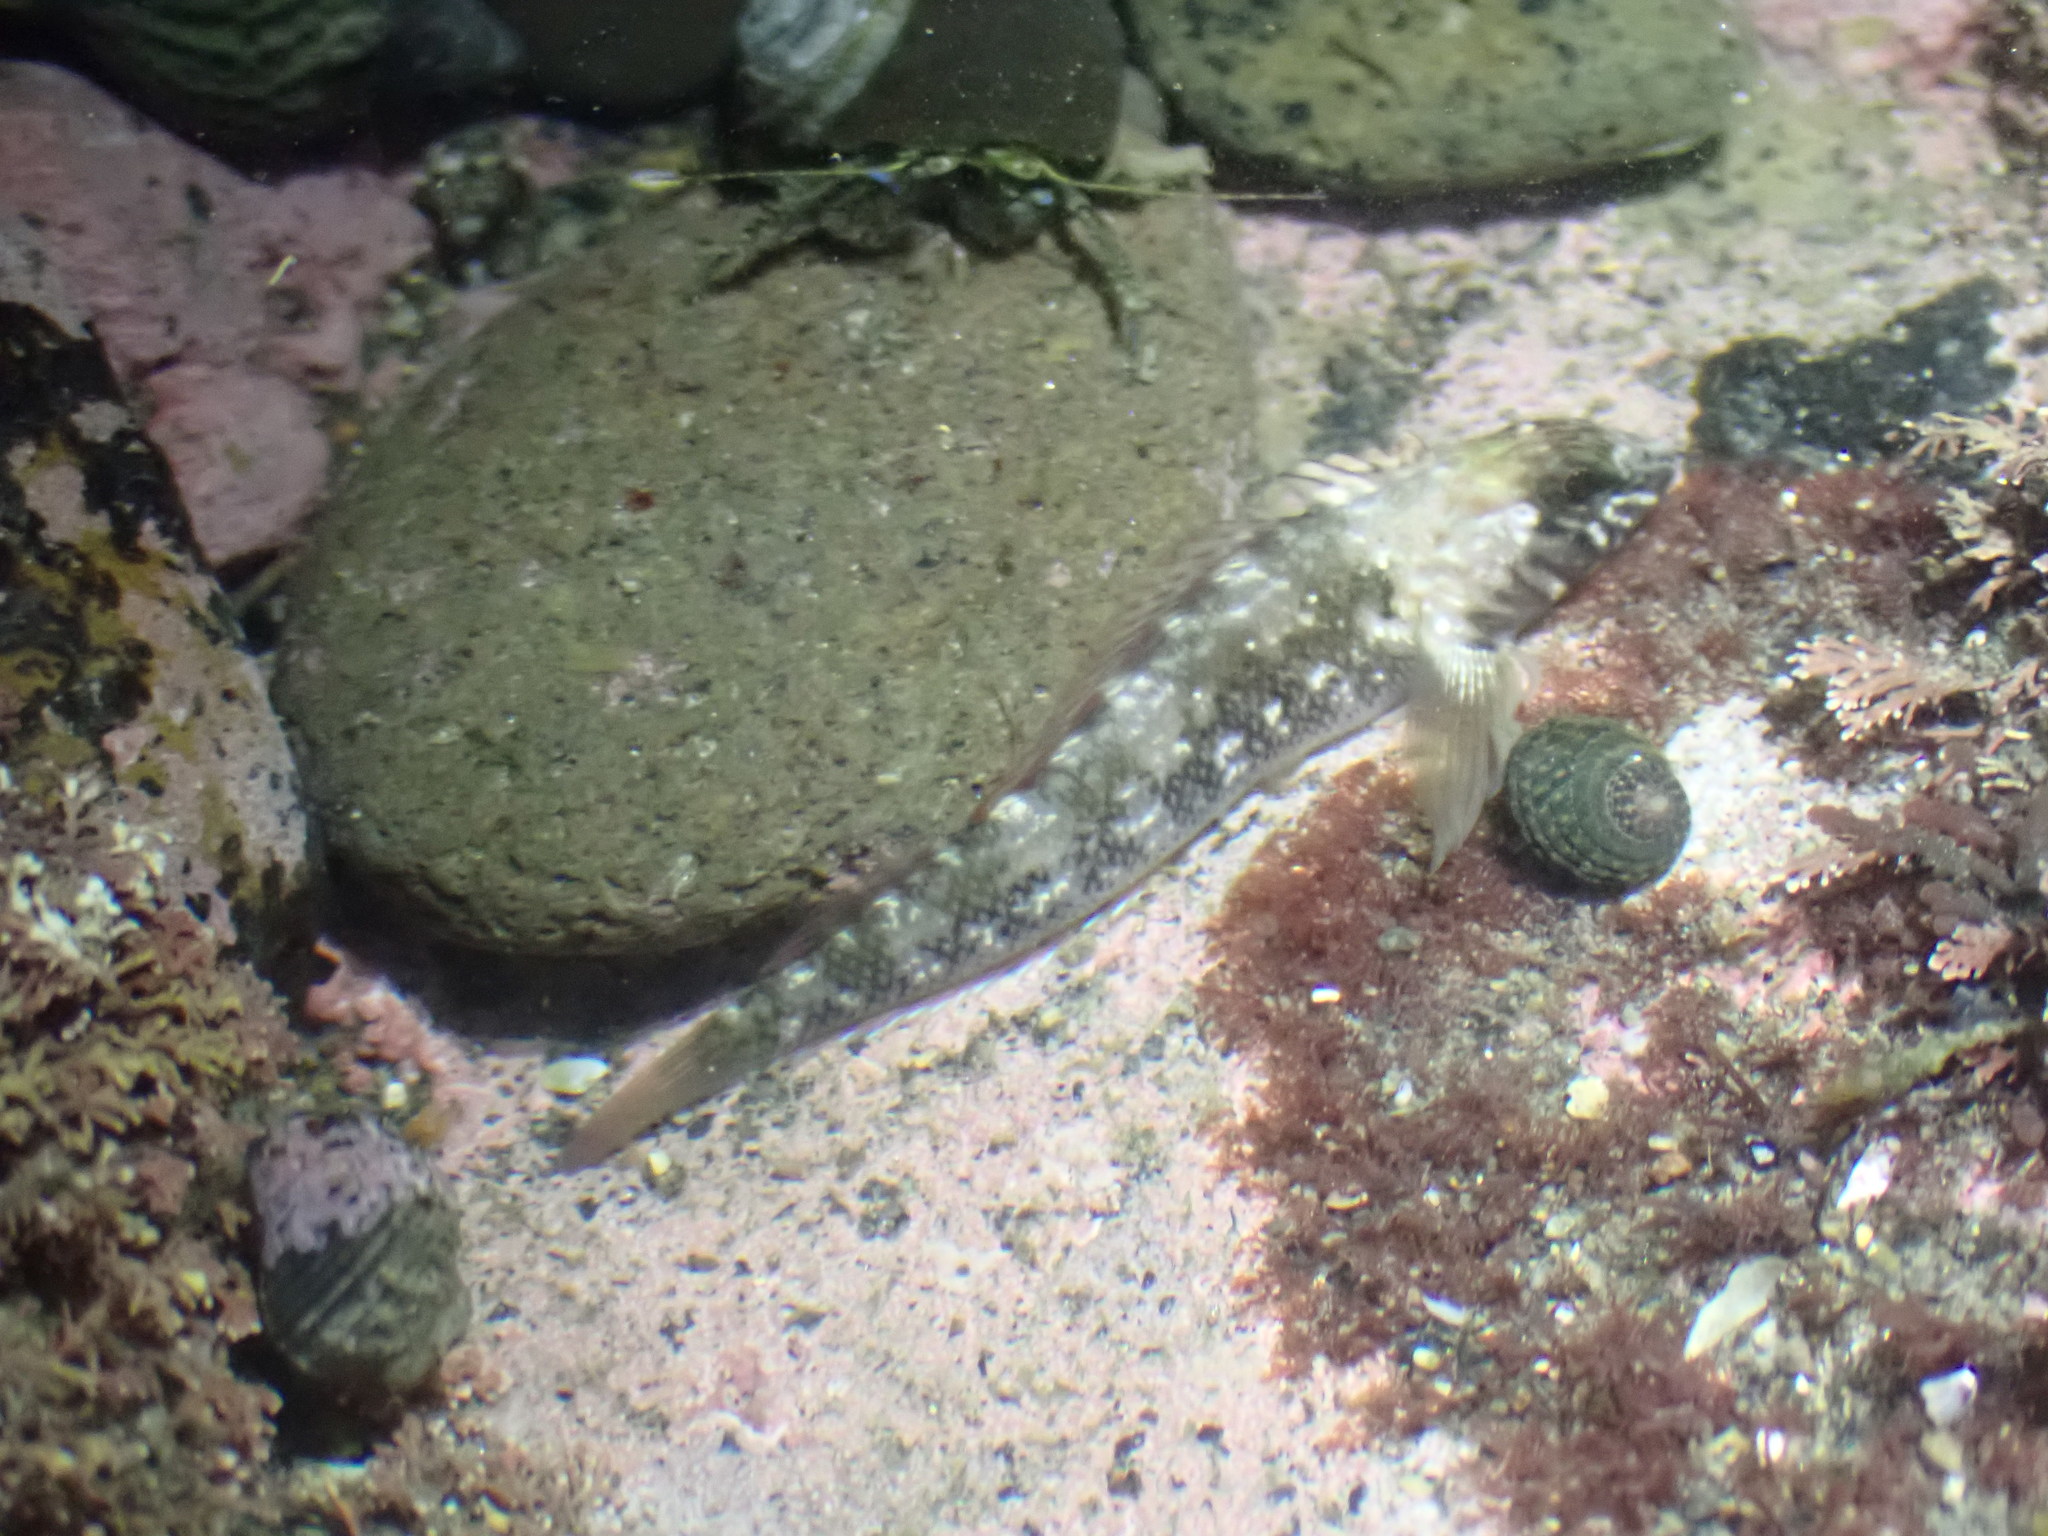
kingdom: Animalia
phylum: Chordata
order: Perciformes
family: Tripterygiidae
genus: Forsterygion
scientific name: Forsterygion lapillum
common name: Common triplefin
